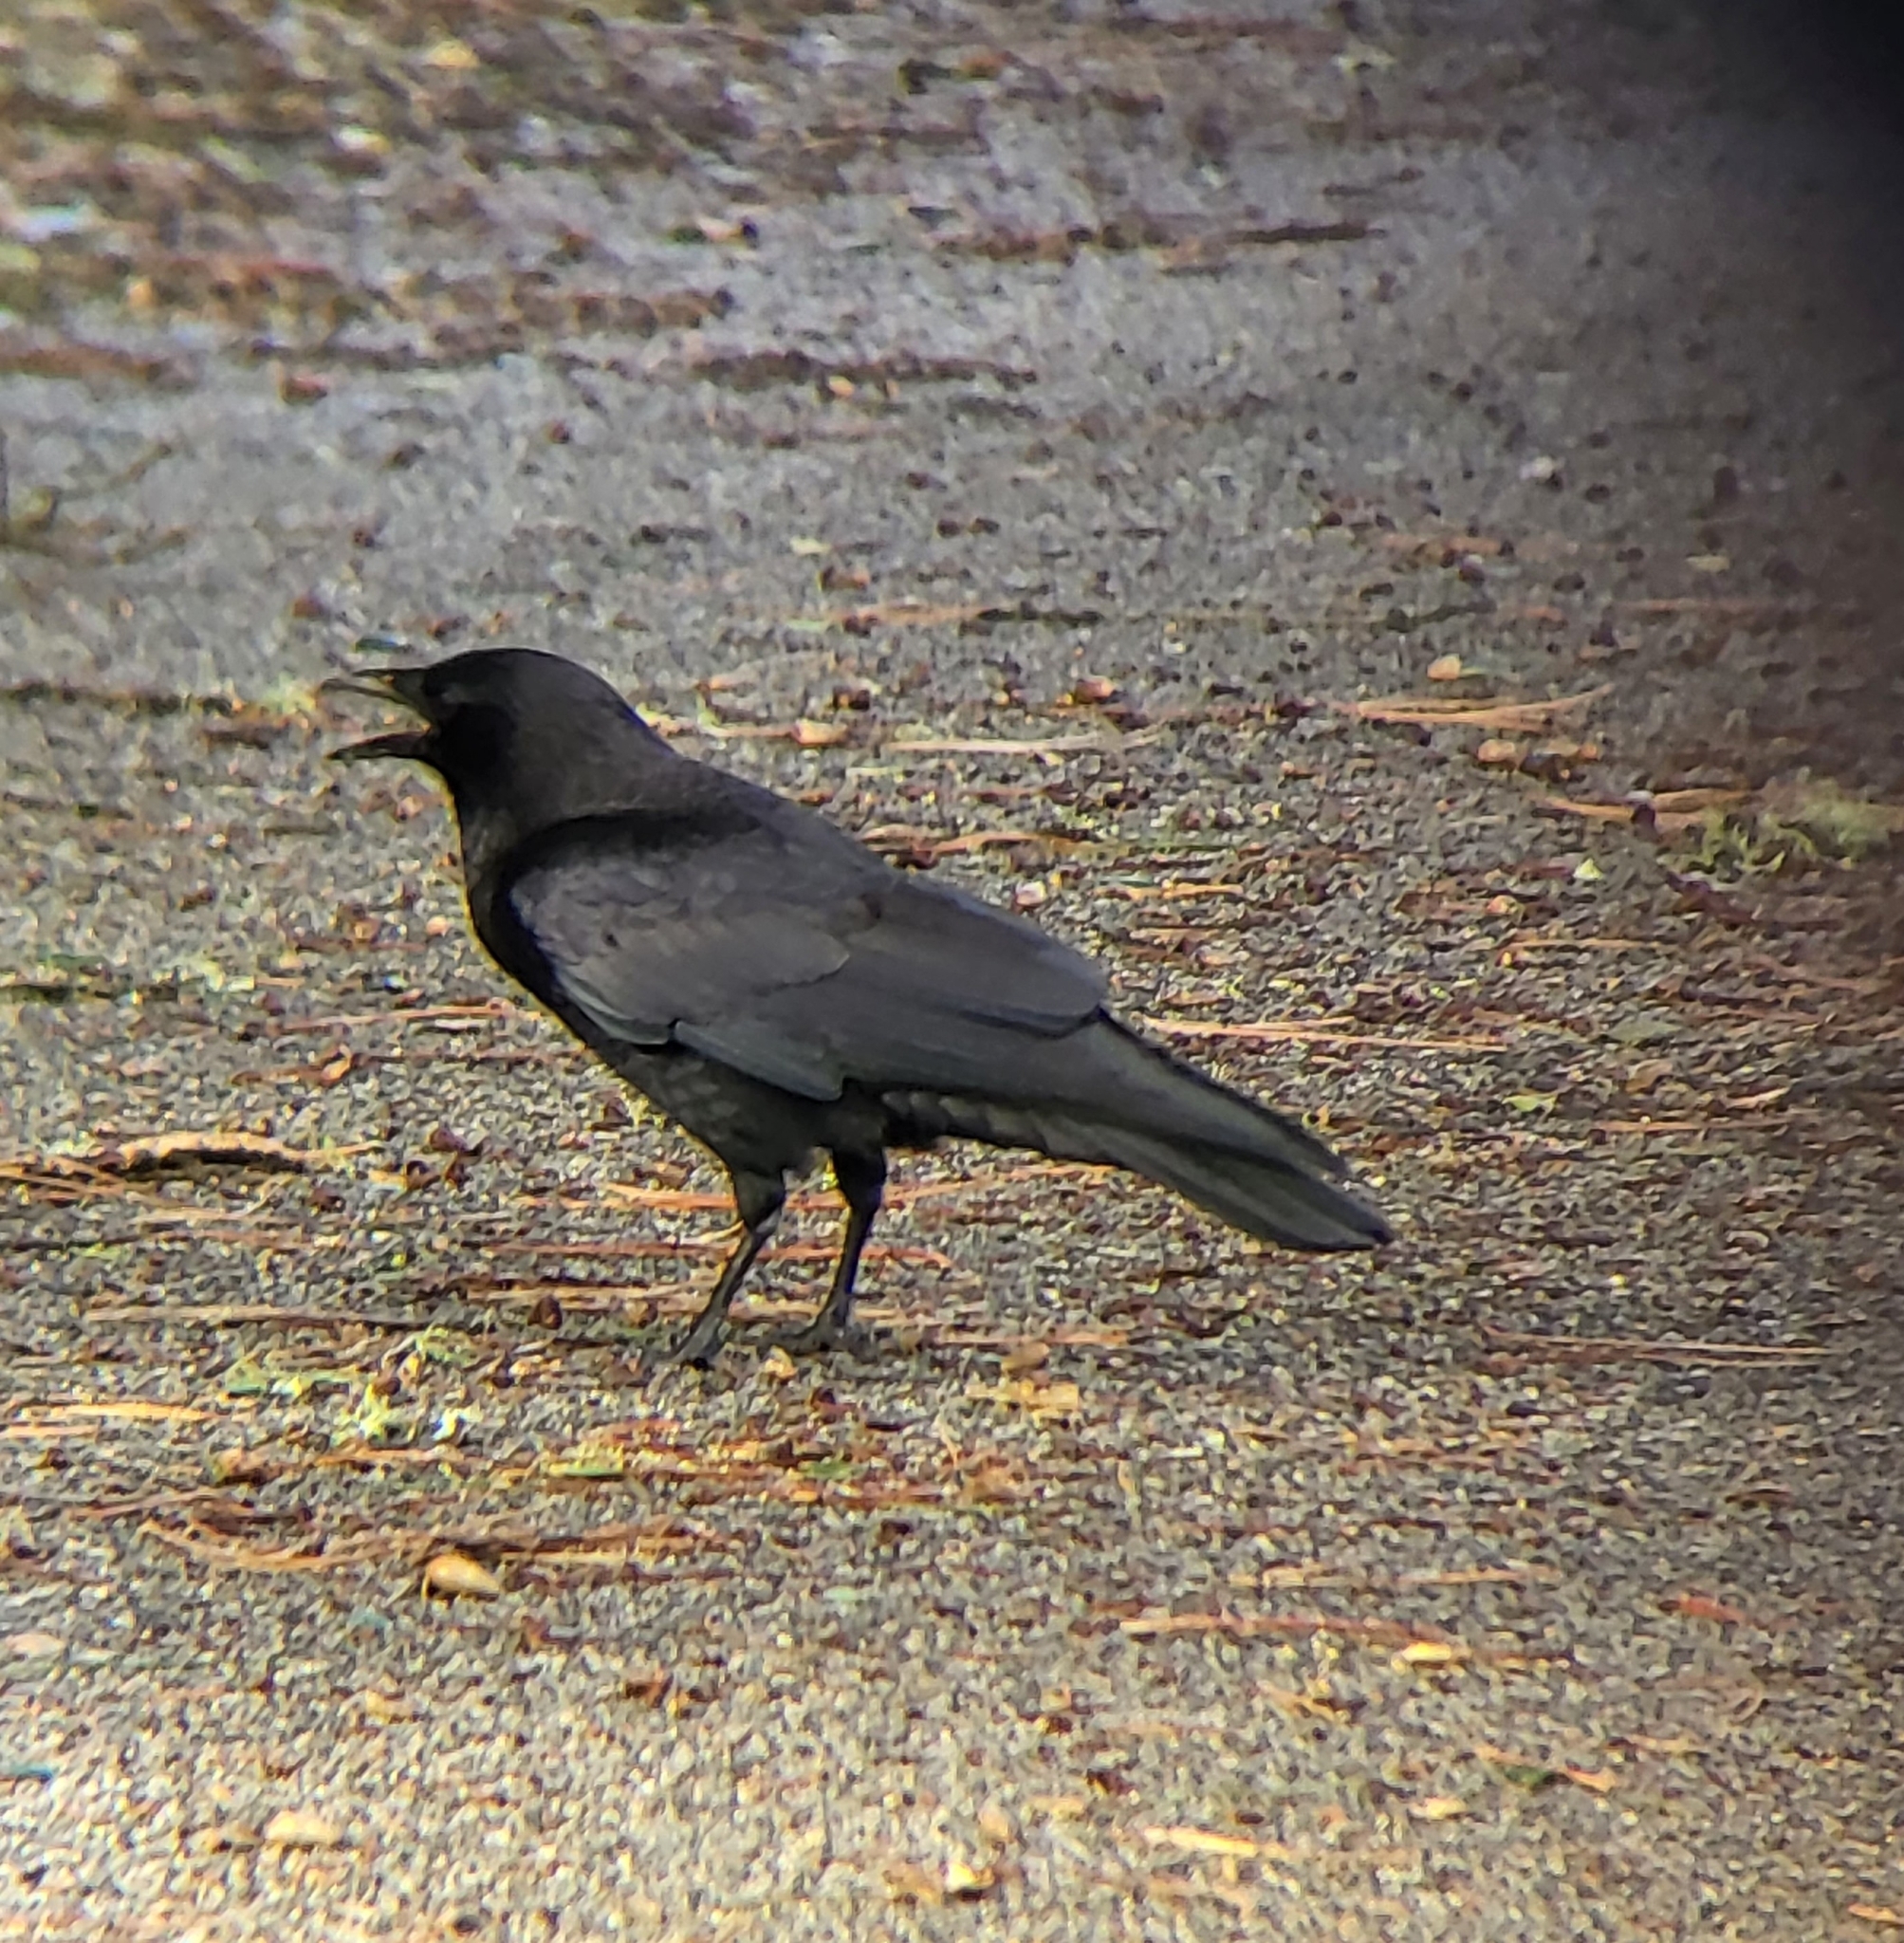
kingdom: Animalia
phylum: Chordata
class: Aves
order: Passeriformes
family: Corvidae
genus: Corvus
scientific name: Corvus brachyrhynchos
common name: American crow
